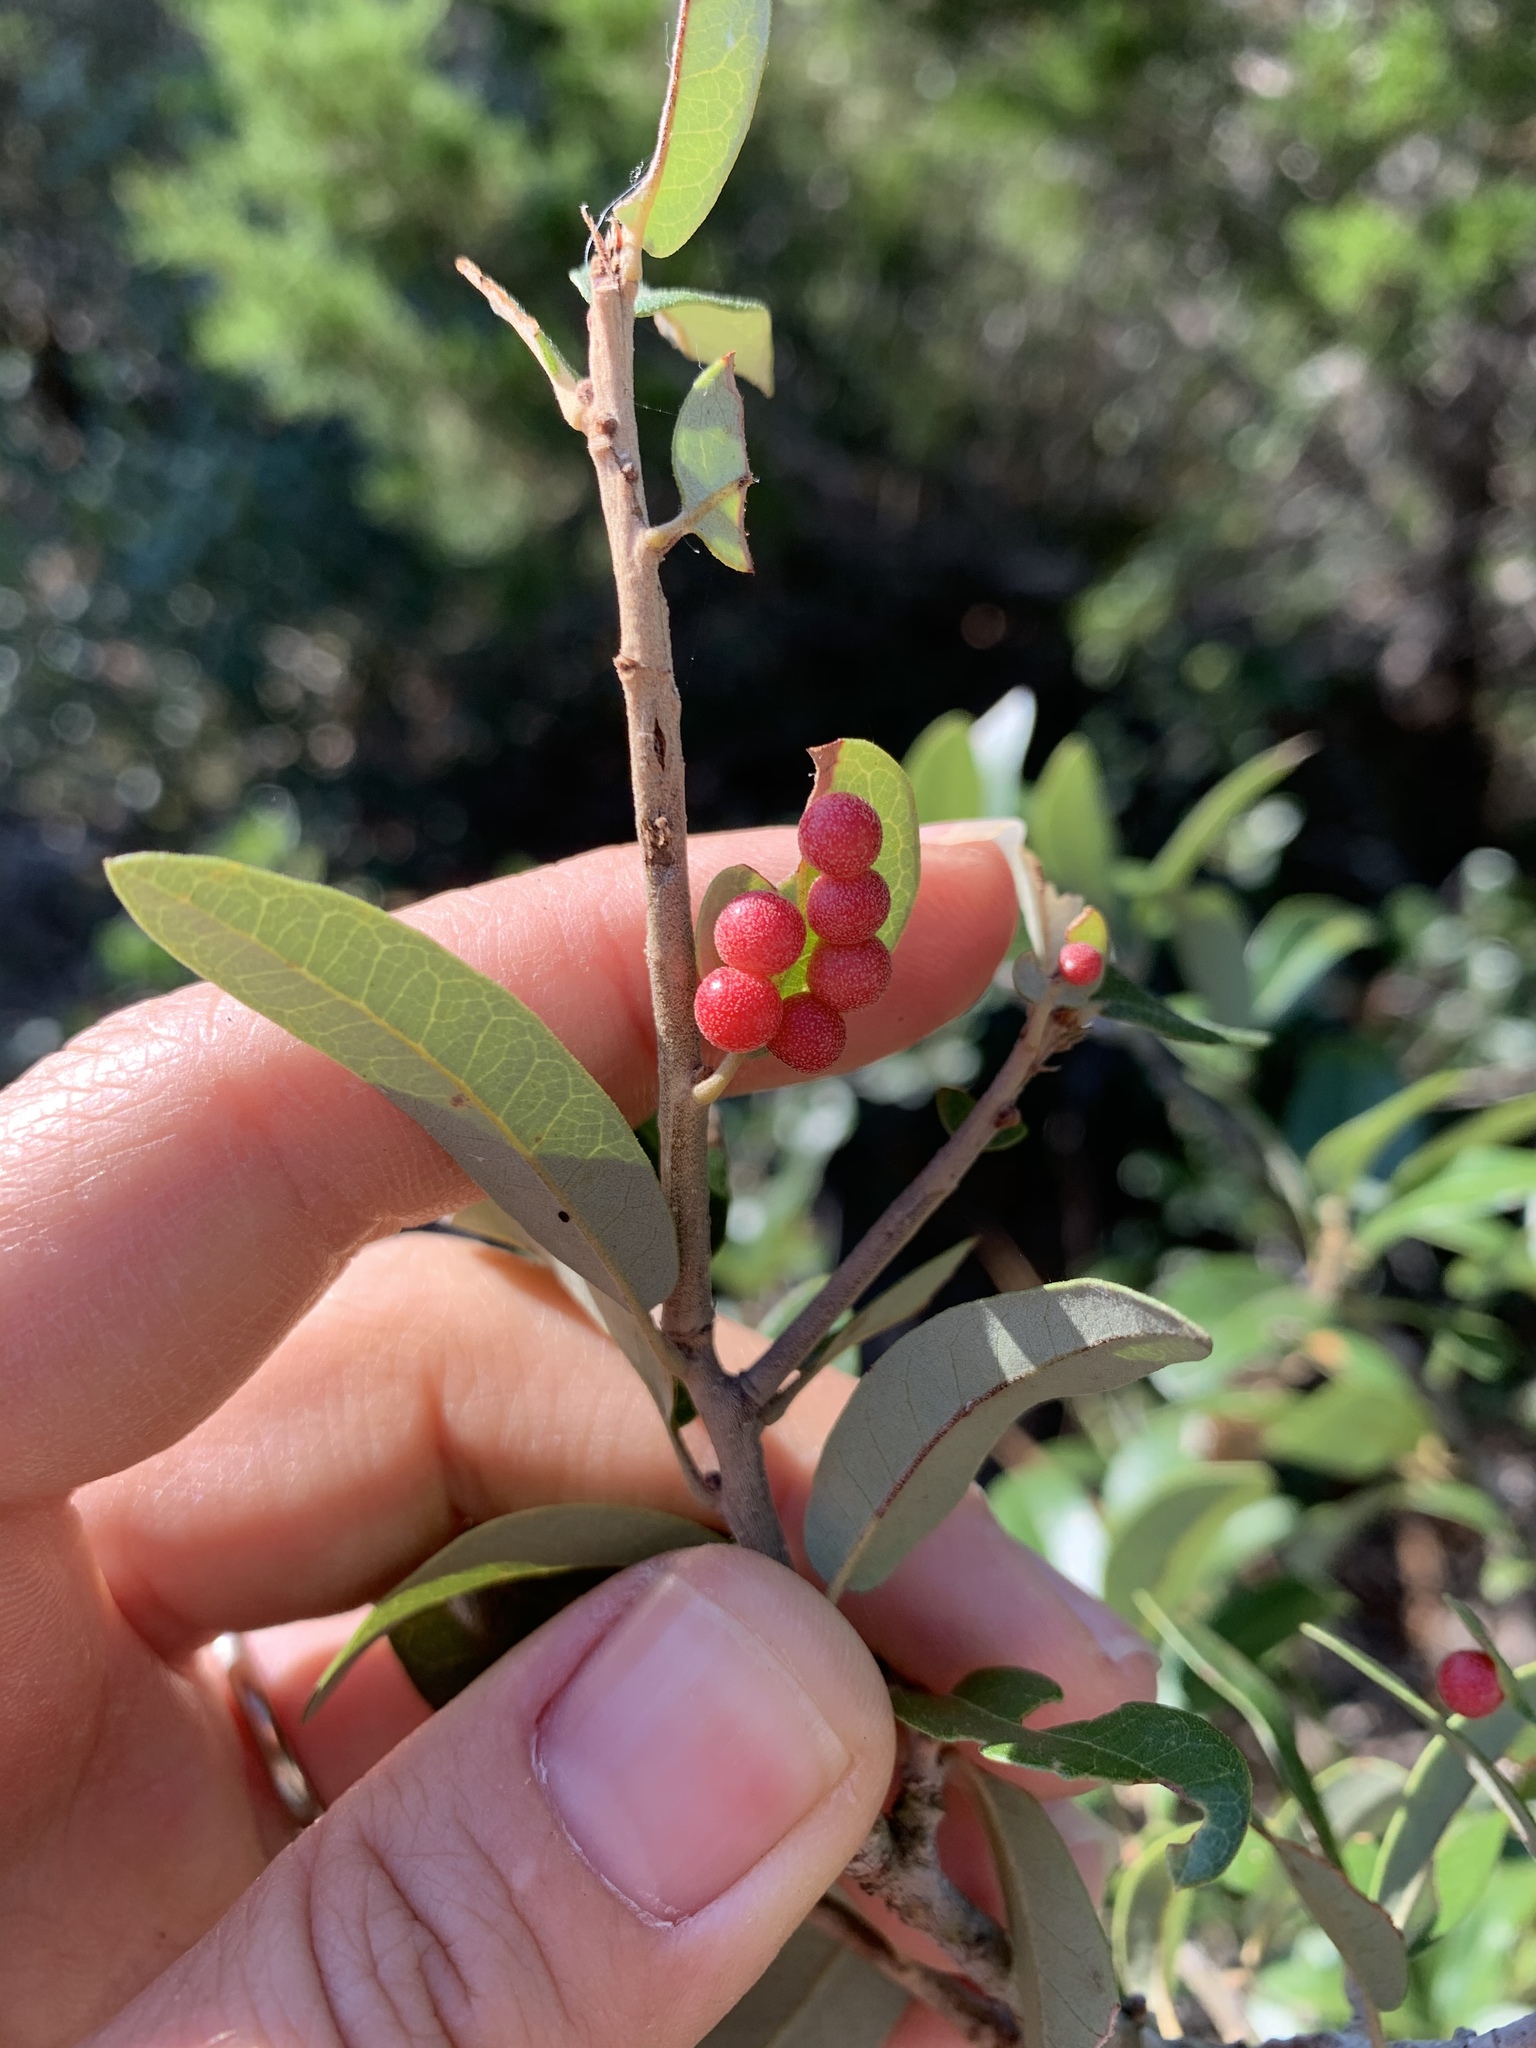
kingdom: Animalia
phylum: Arthropoda
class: Insecta
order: Hymenoptera
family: Cynipidae
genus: Belonocnema
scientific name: Belonocnema kinseyi
